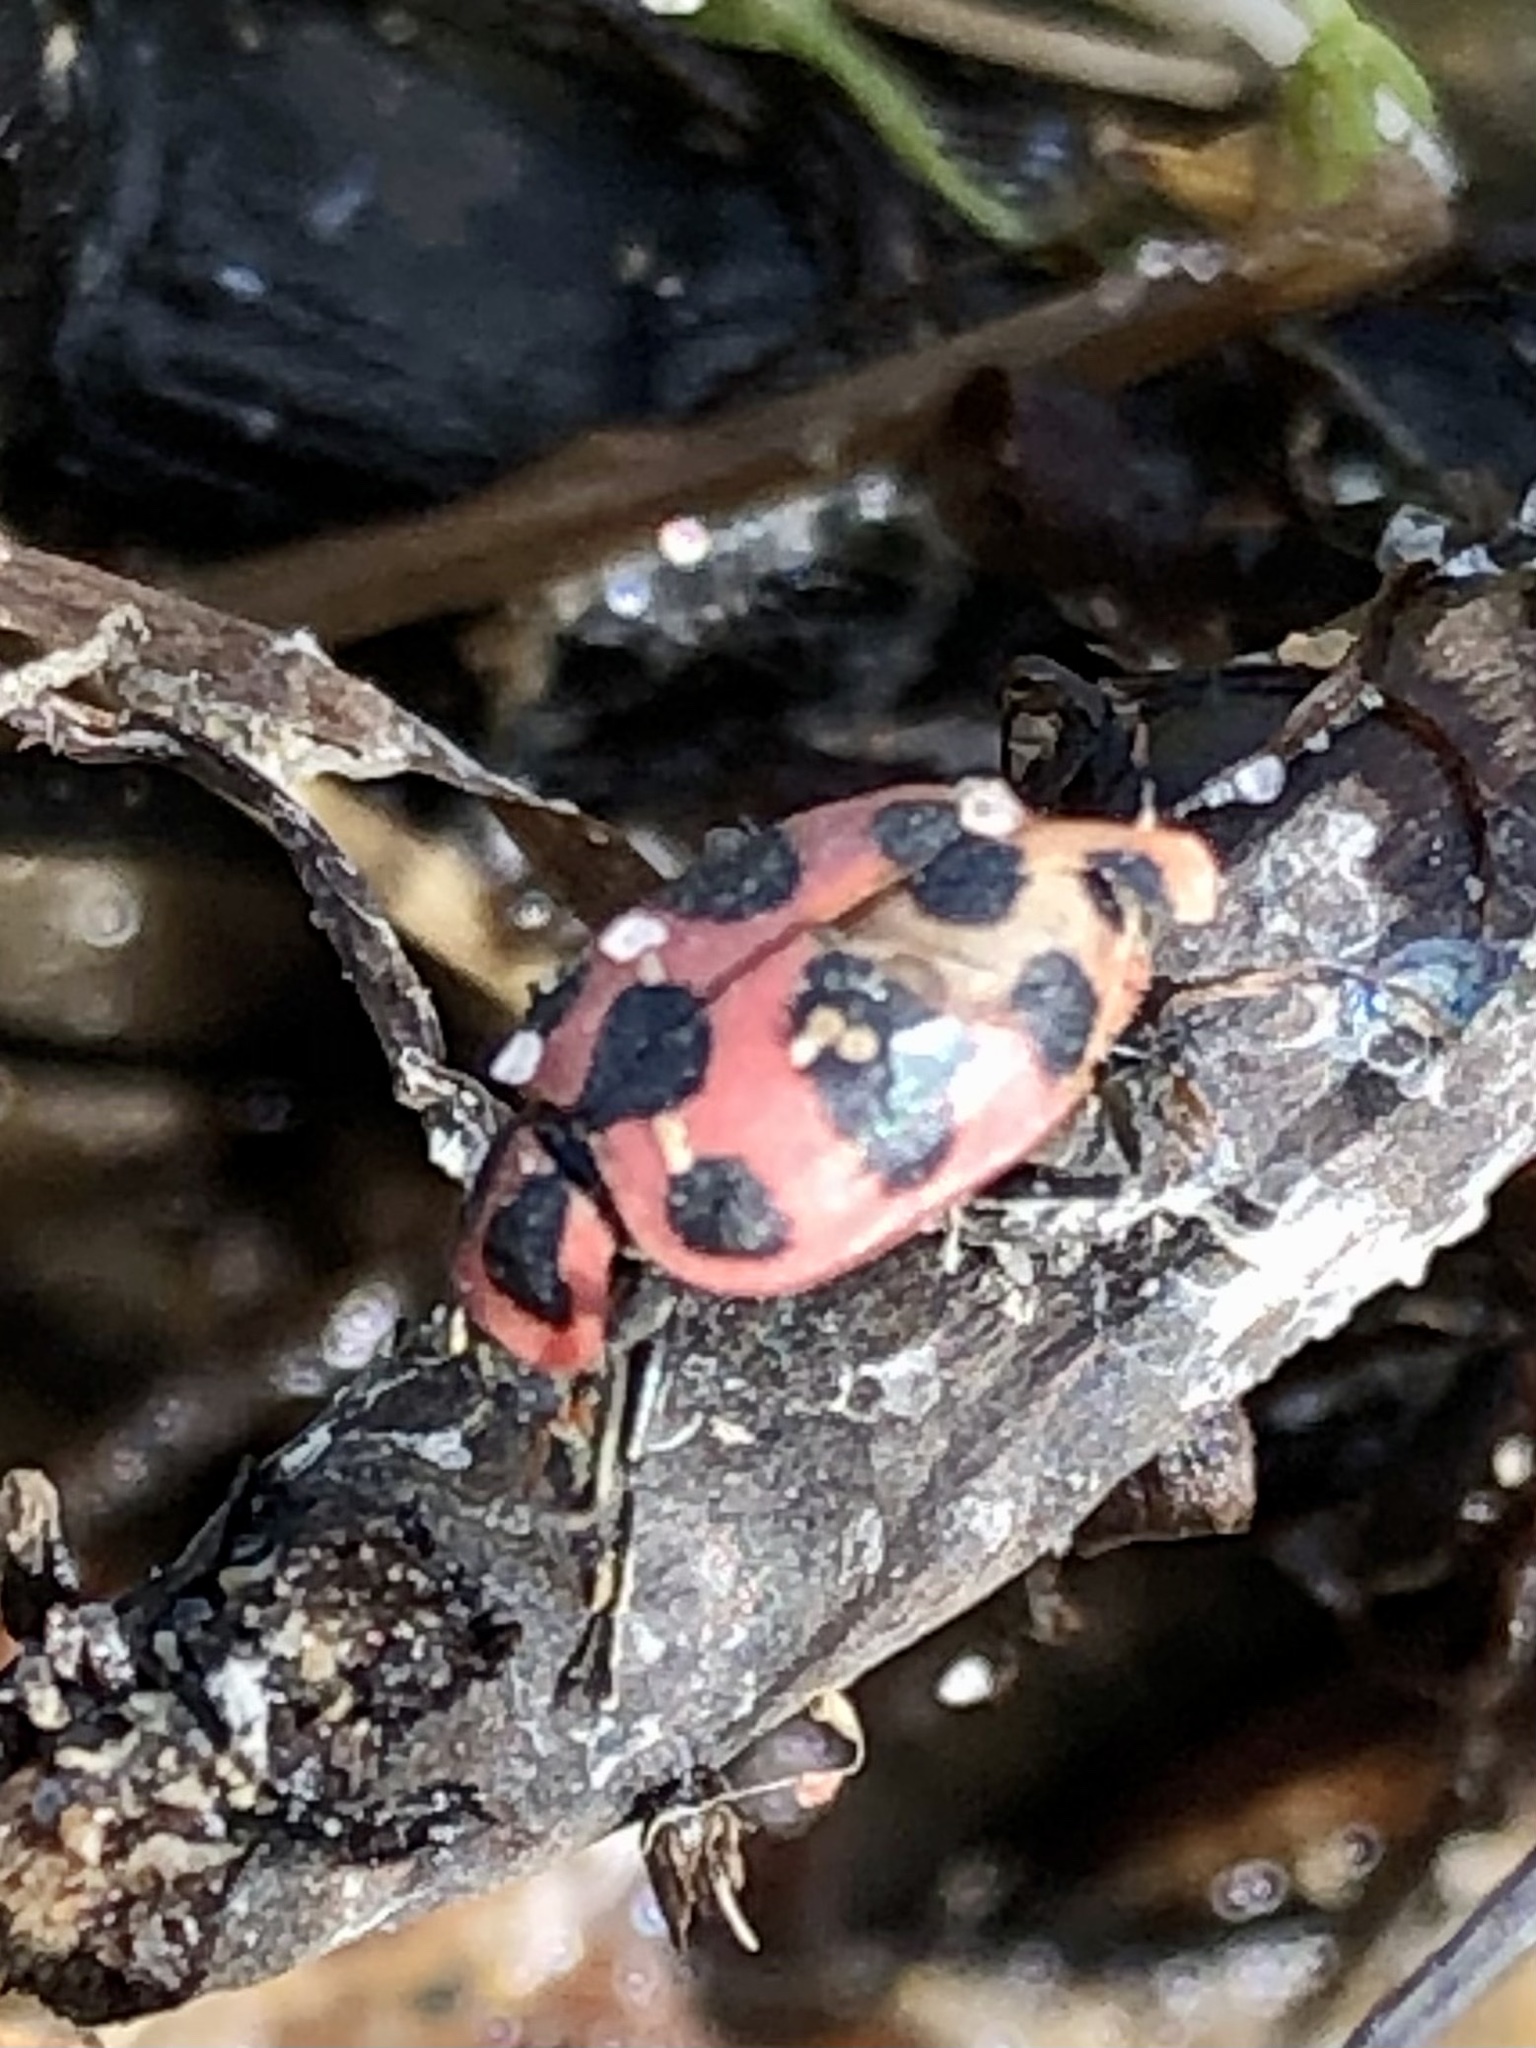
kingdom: Animalia
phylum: Arthropoda
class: Insecta
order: Coleoptera
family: Coccinellidae
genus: Coleomegilla
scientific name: Coleomegilla maculata
